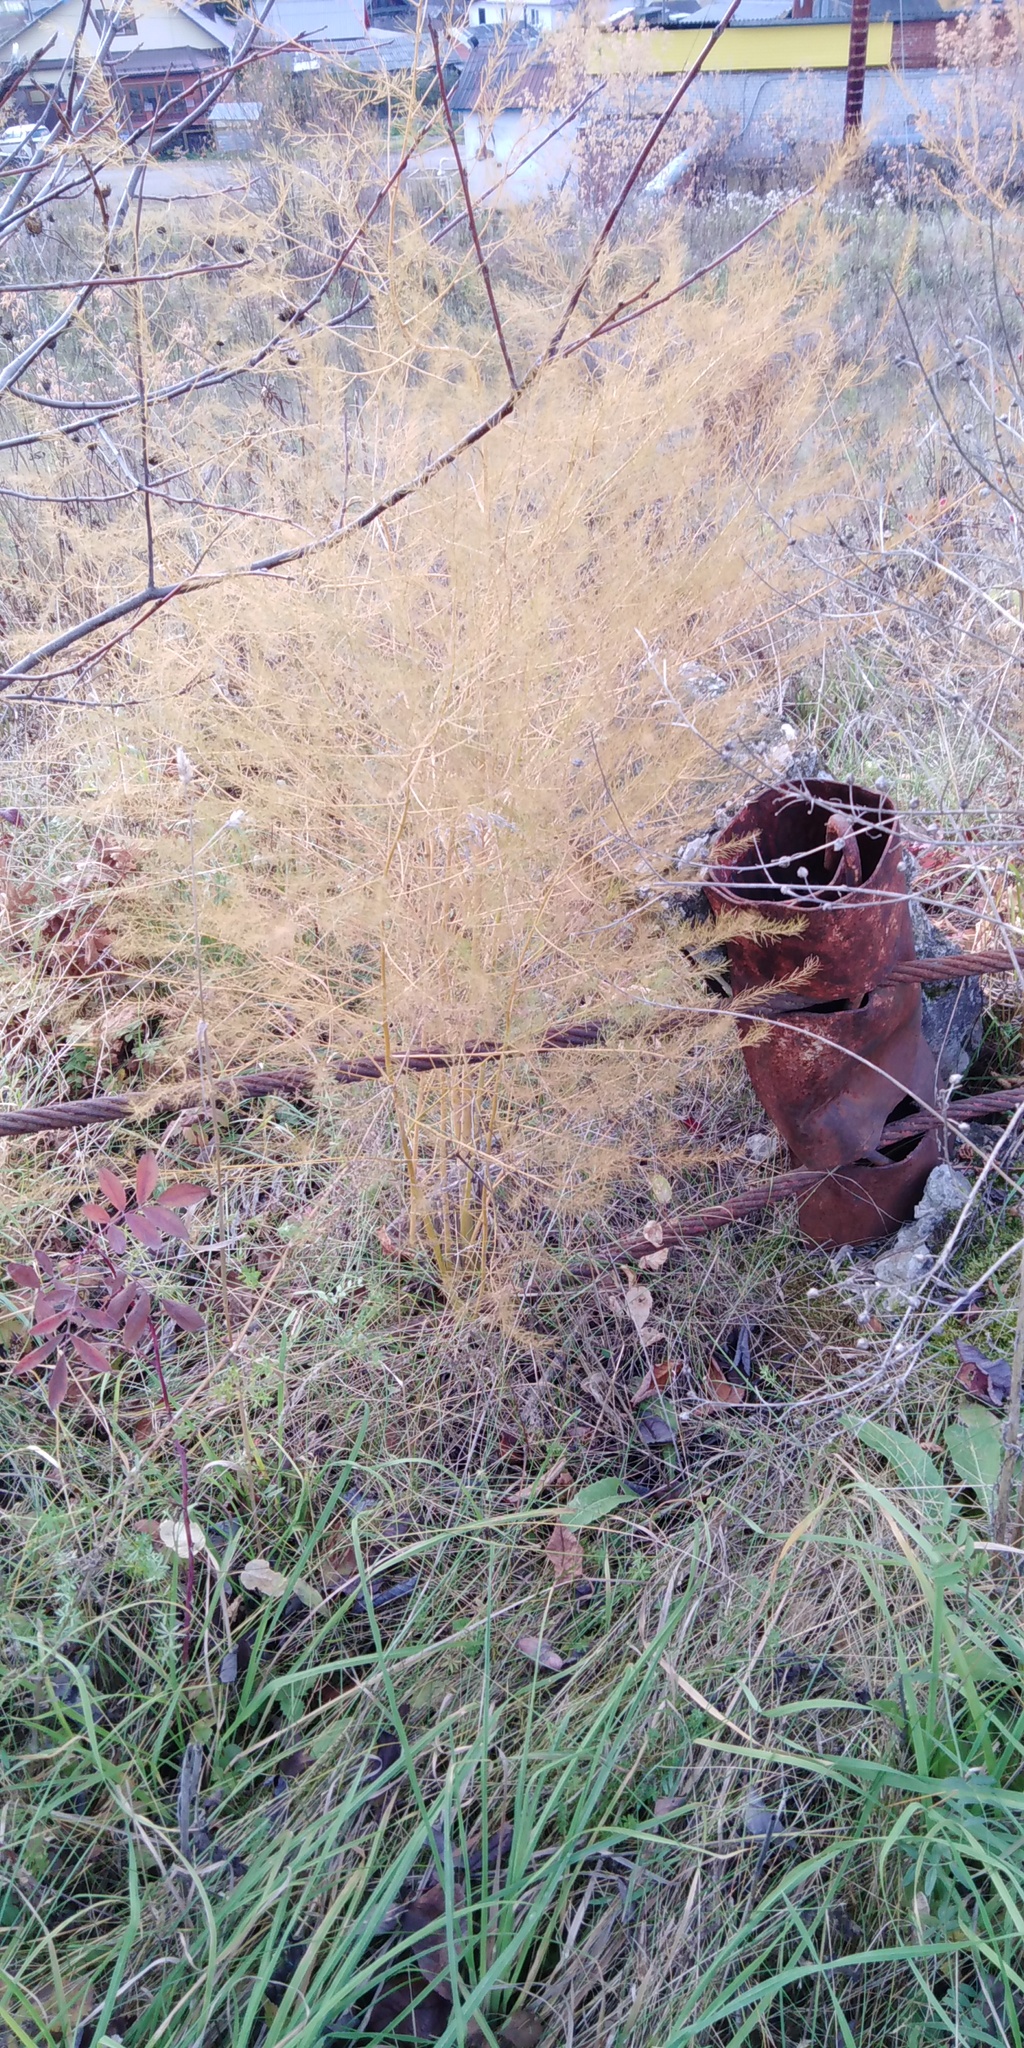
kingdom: Plantae
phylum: Tracheophyta
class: Liliopsida
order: Asparagales
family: Asparagaceae
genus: Asparagus
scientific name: Asparagus officinalis
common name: Garden asparagus
